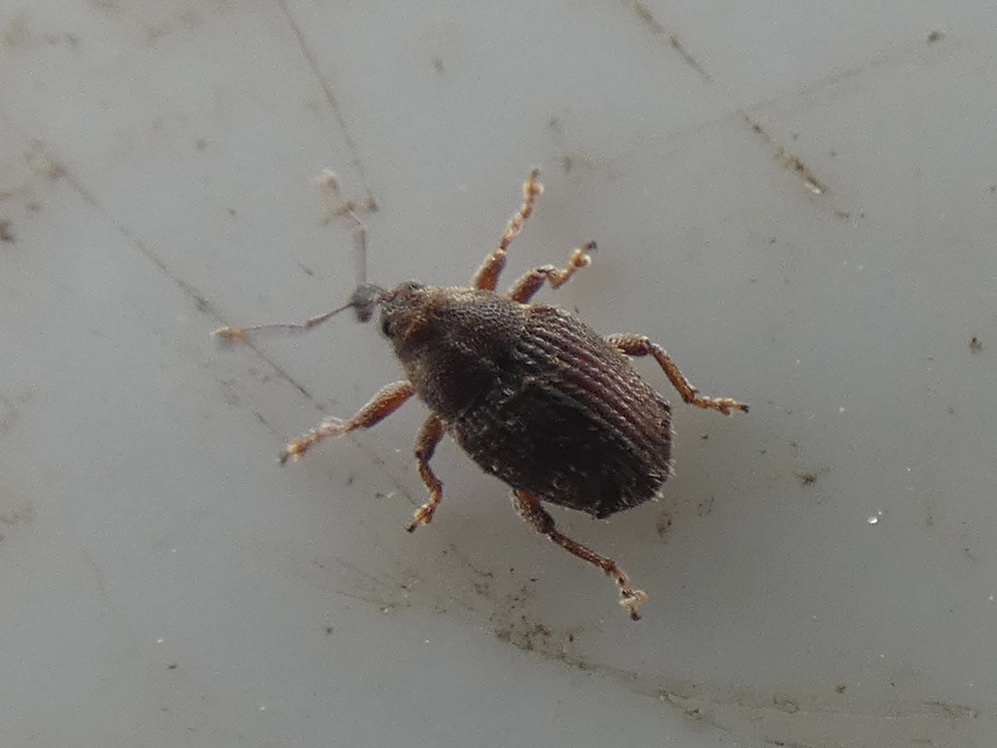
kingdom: Animalia
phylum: Arthropoda
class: Insecta
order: Coleoptera
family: Curculionidae
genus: Trichosirocalus
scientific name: Trichosirocalus troglodytes
